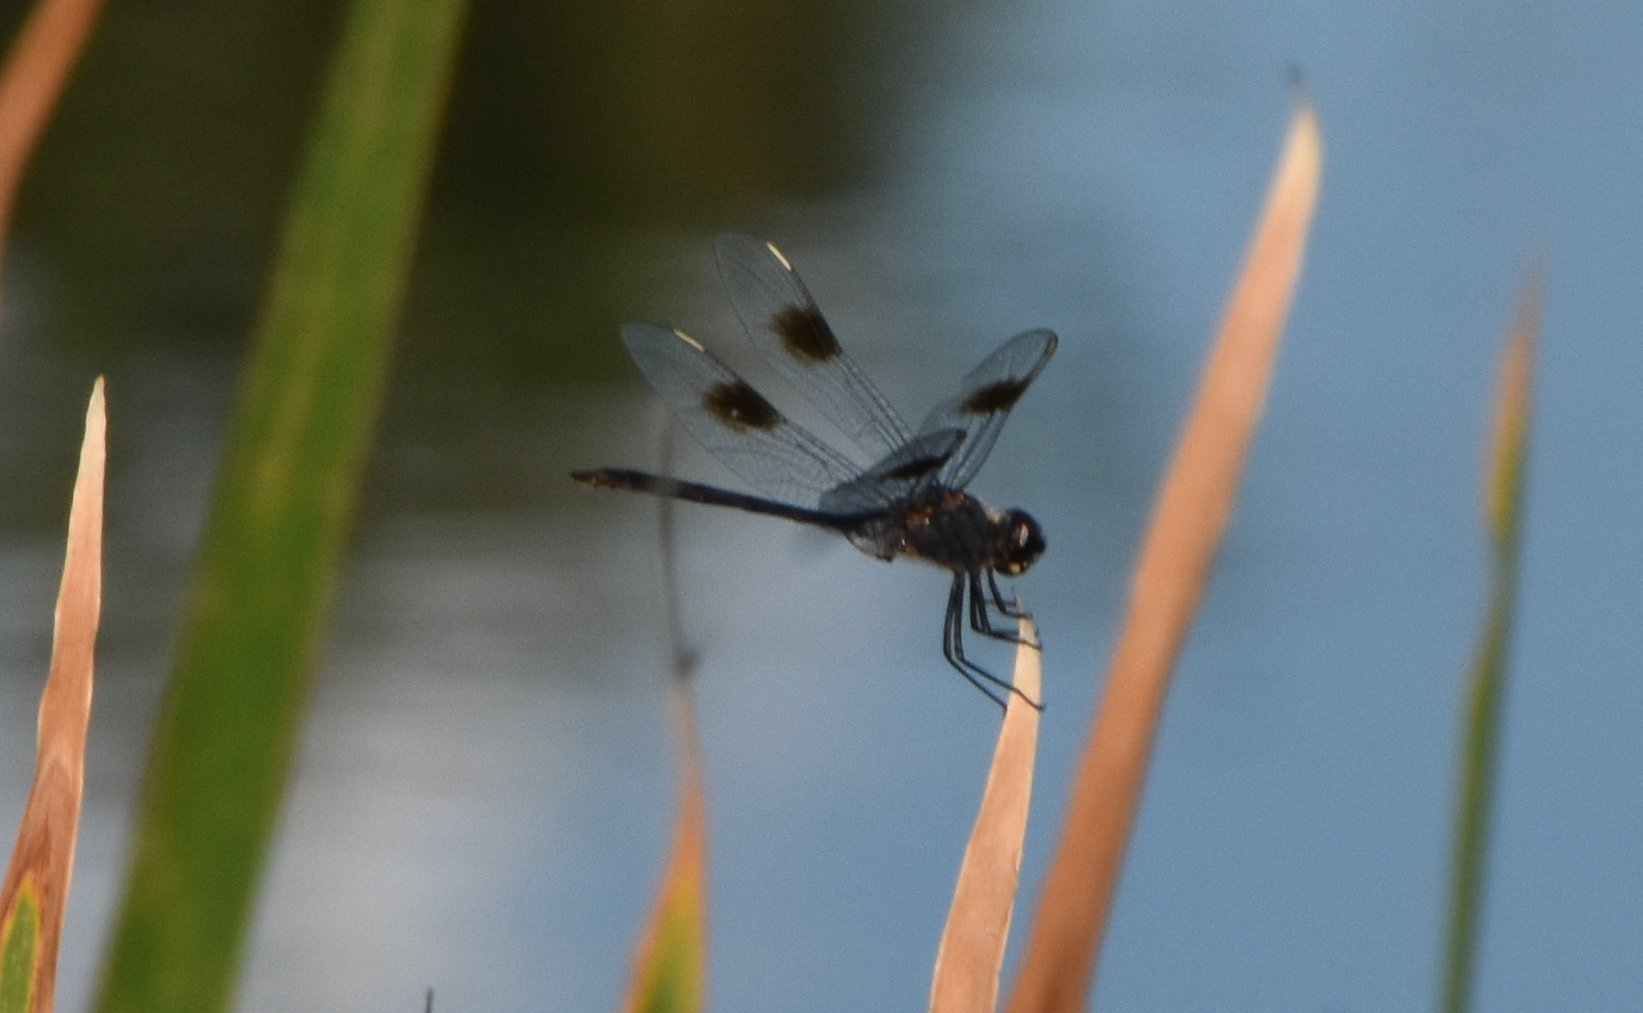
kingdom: Animalia
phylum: Arthropoda
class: Insecta
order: Odonata
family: Libellulidae
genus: Brachymesia
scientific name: Brachymesia gravida
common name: Four-spotted pennant
